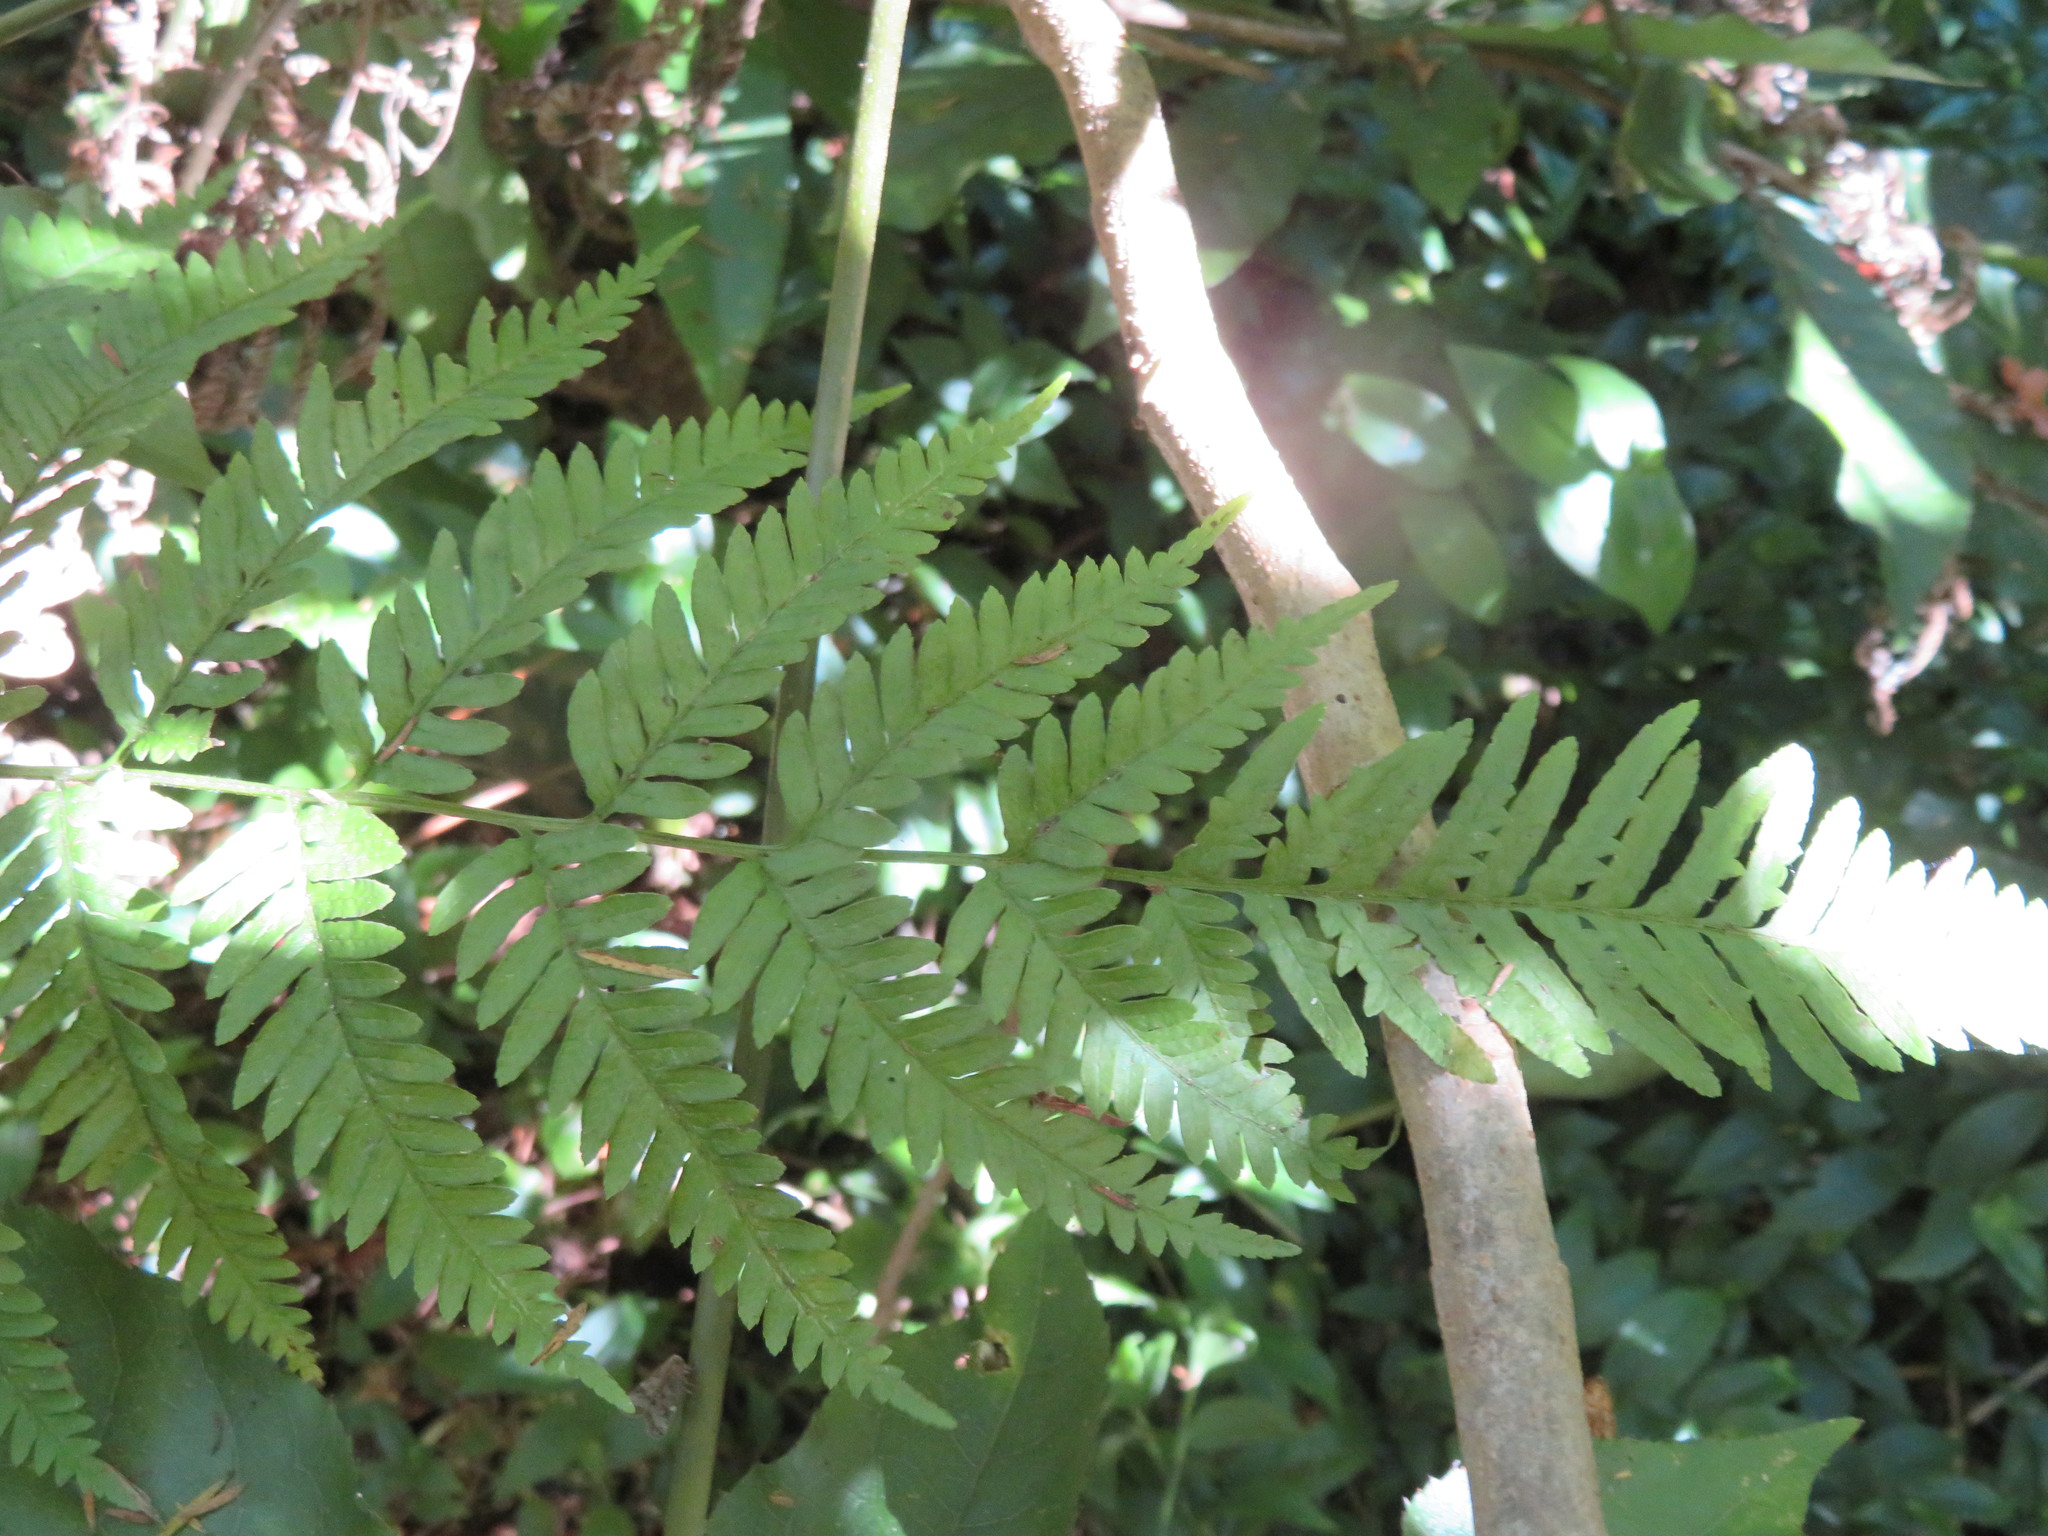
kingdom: Plantae
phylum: Tracheophyta
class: Polypodiopsida
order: Polypodiales
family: Pteridaceae
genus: Pteris
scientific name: Pteris tremula
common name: Australian brake
